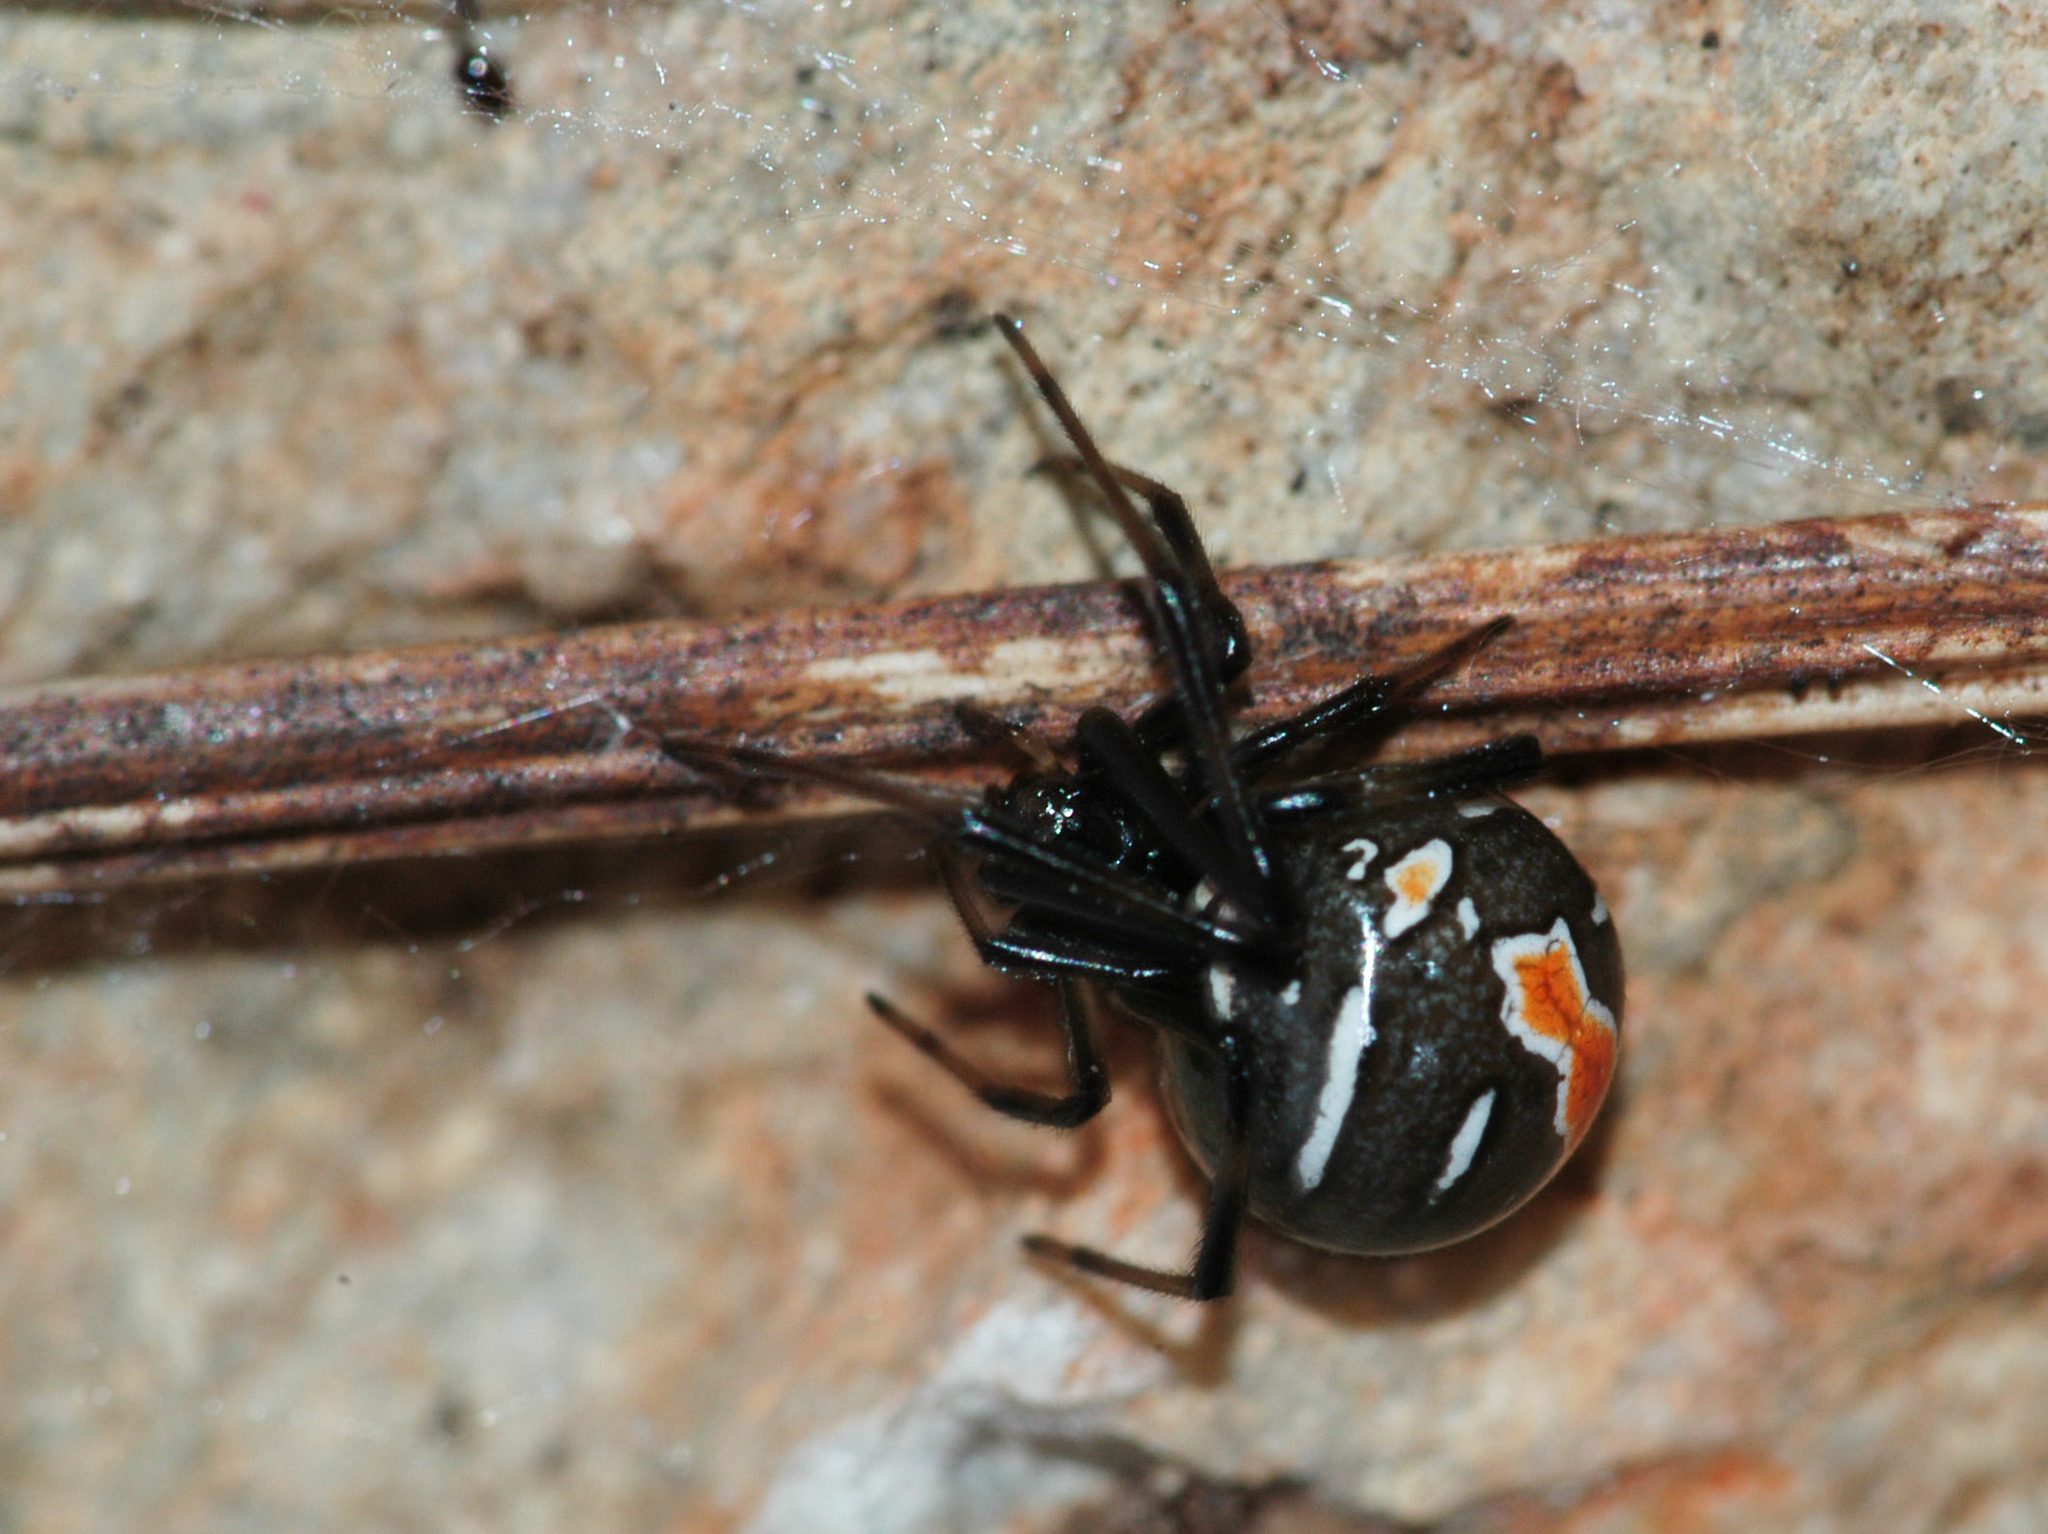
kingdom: Animalia
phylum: Arthropoda
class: Arachnida
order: Araneae
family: Theridiidae
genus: Latrodectus
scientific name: Latrodectus hasselti
